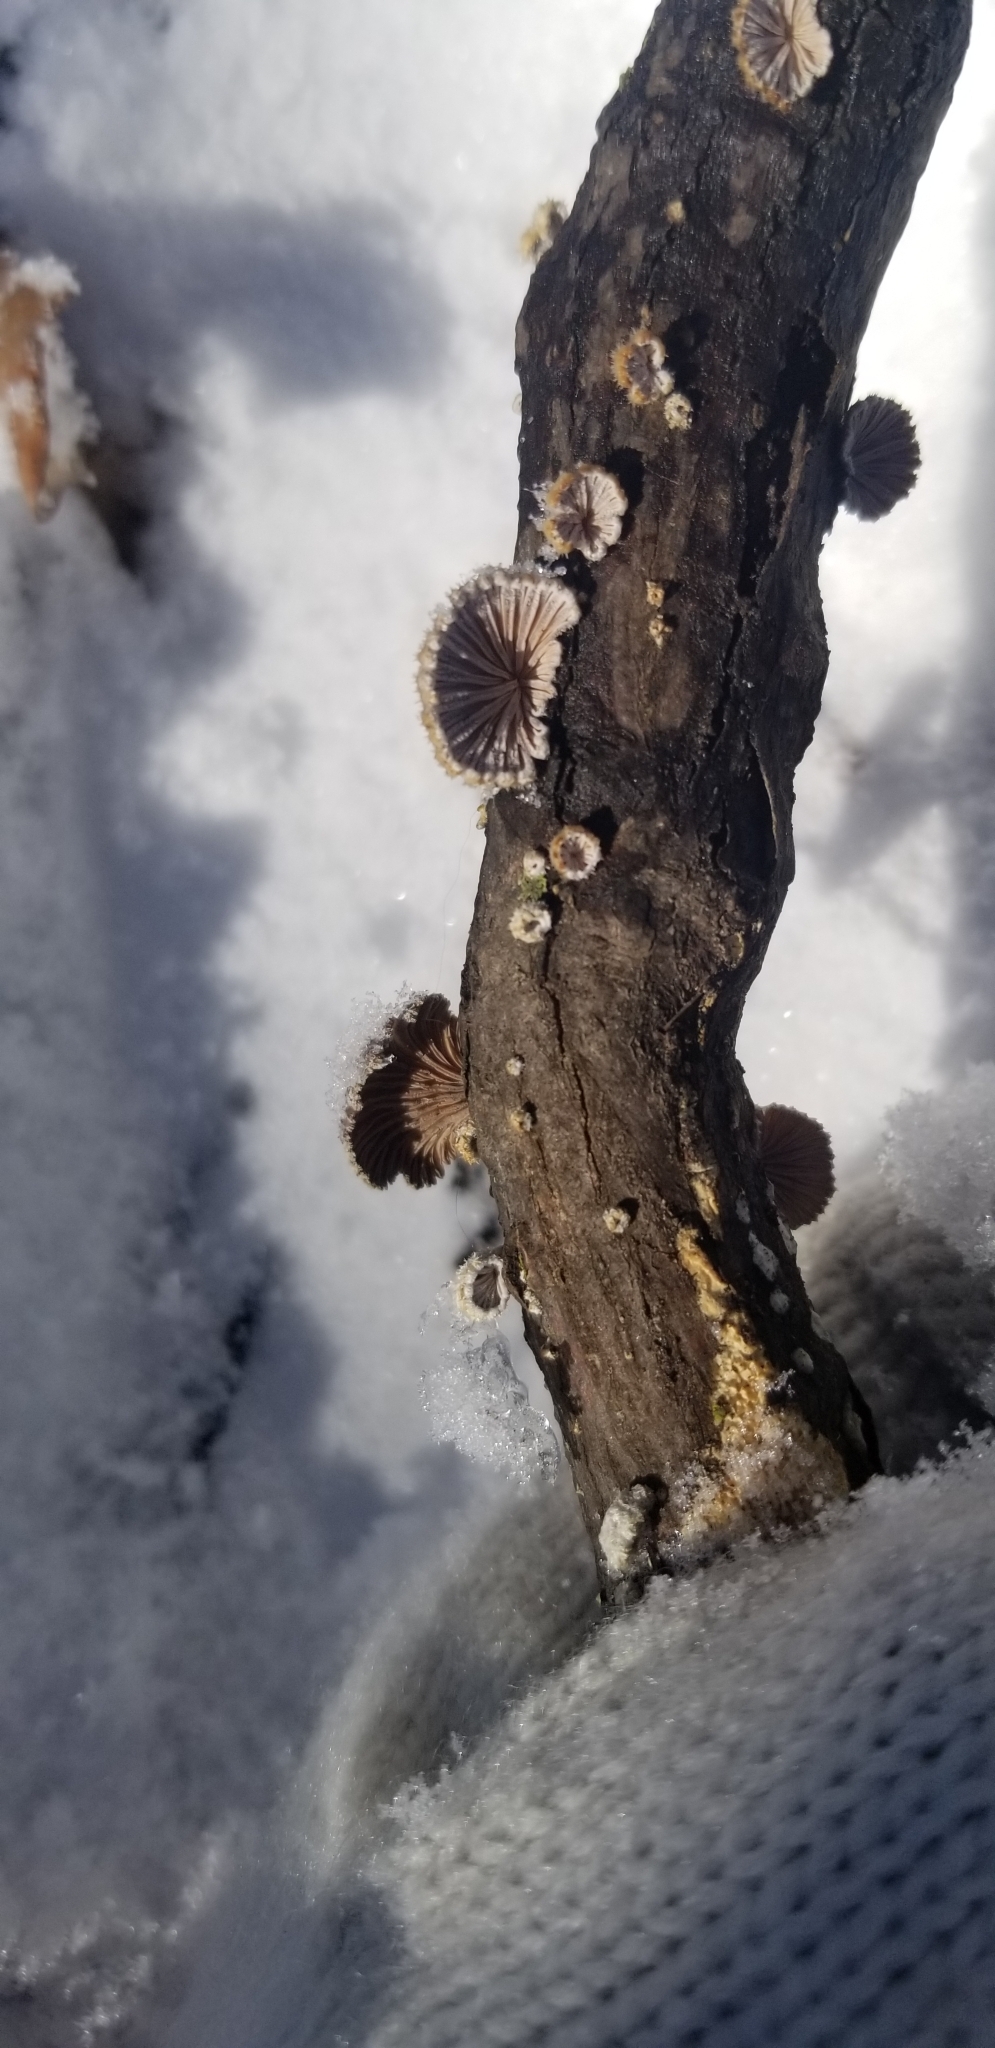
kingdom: Fungi
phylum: Basidiomycota
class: Agaricomycetes
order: Agaricales
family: Schizophyllaceae
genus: Schizophyllum
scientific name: Schizophyllum commune
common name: Common porecrust
